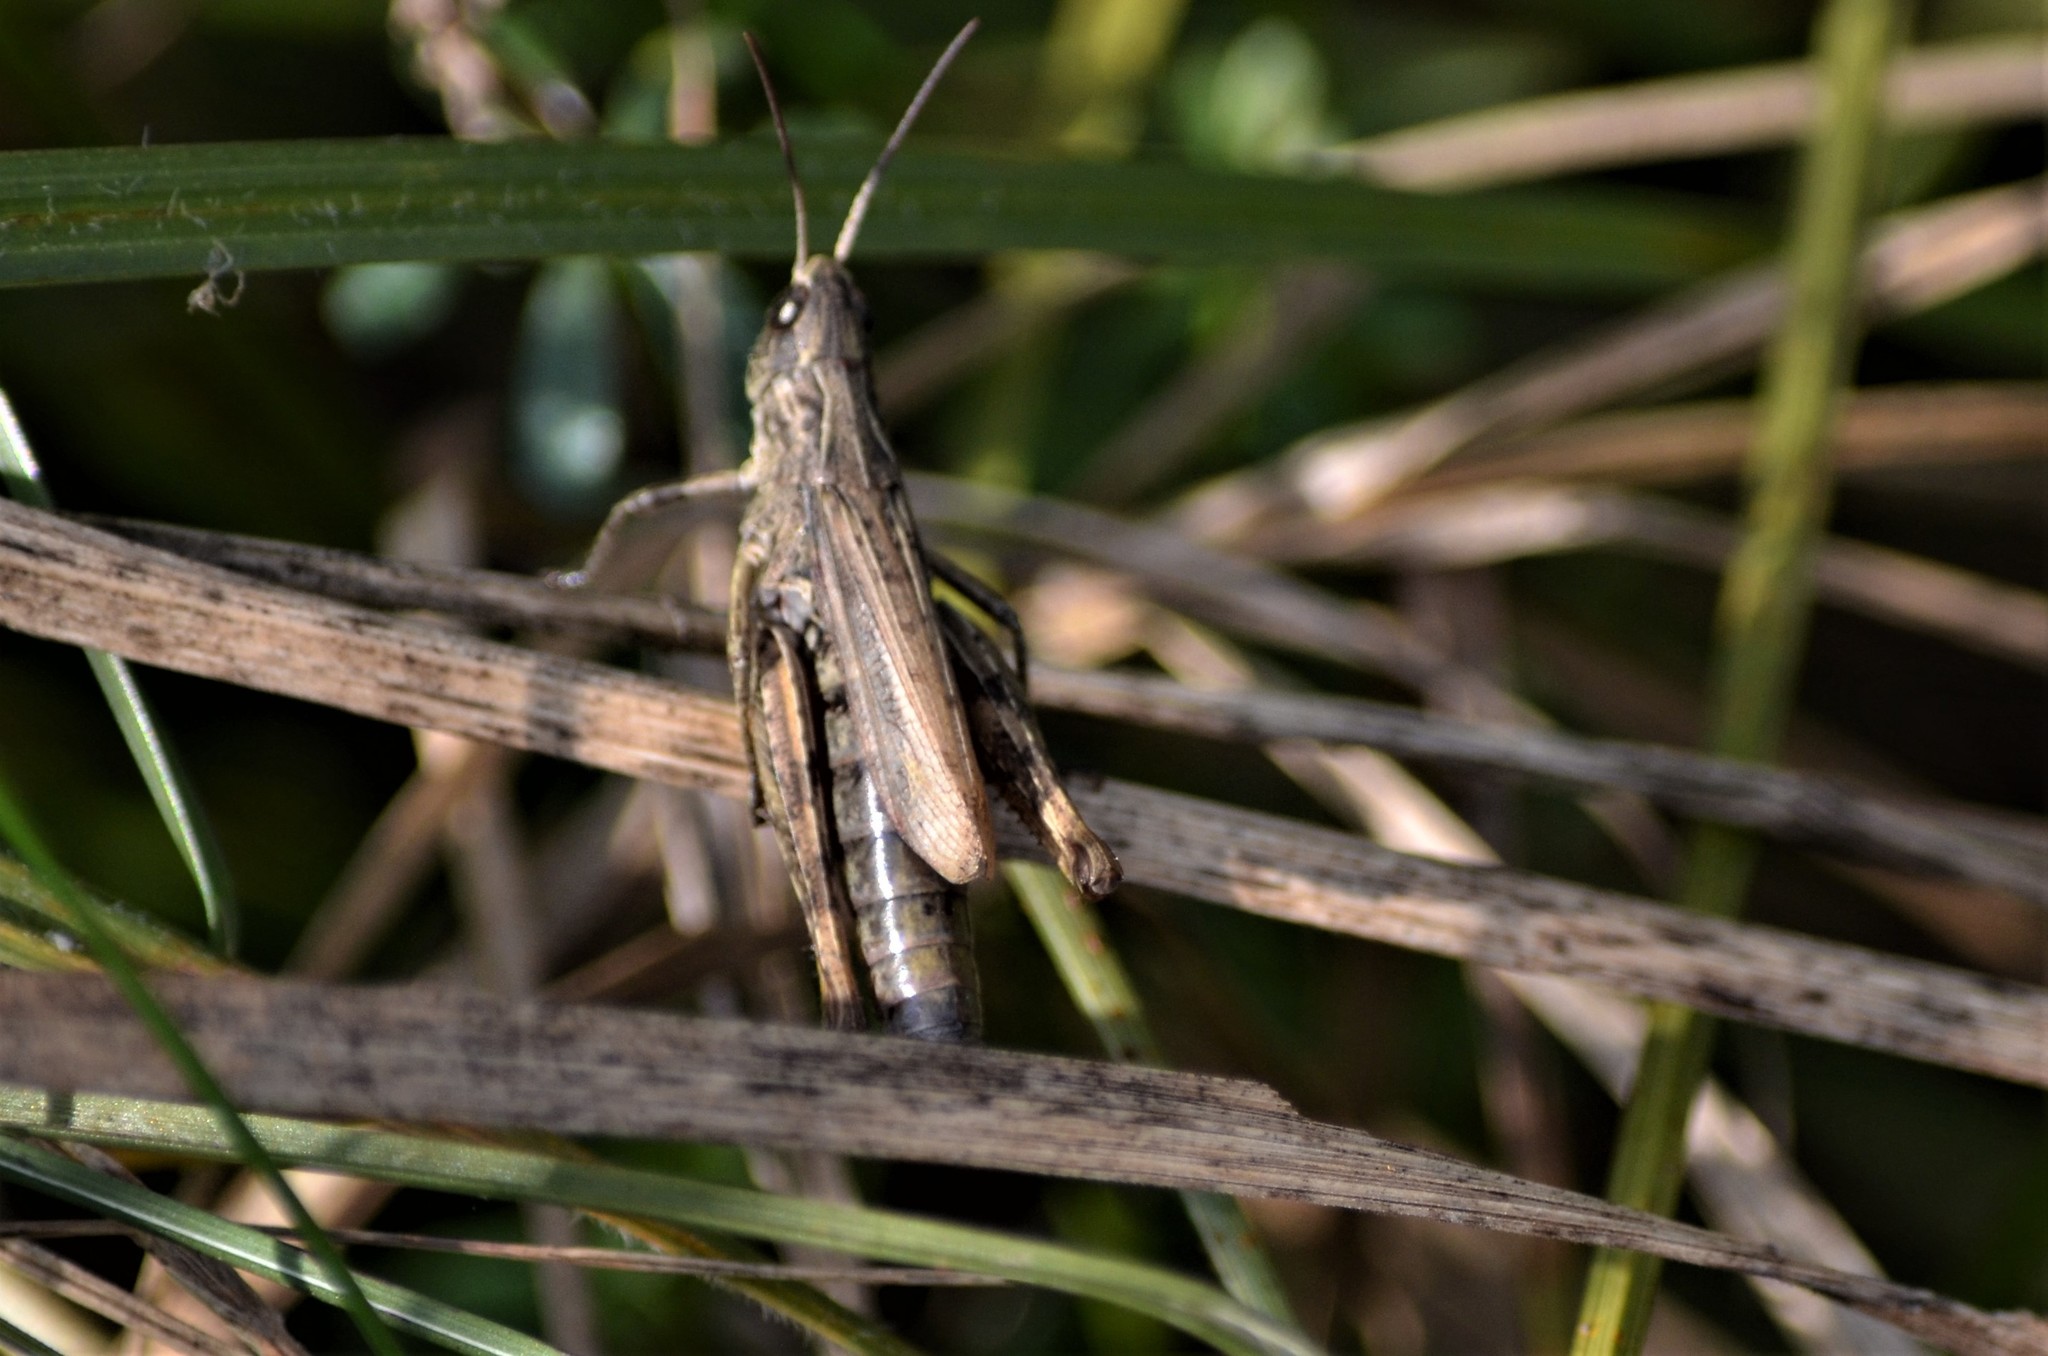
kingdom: Animalia
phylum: Arthropoda
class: Insecta
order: Orthoptera
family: Acrididae
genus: Chorthippus
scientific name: Chorthippus apricarius
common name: Upland field grasshopper
